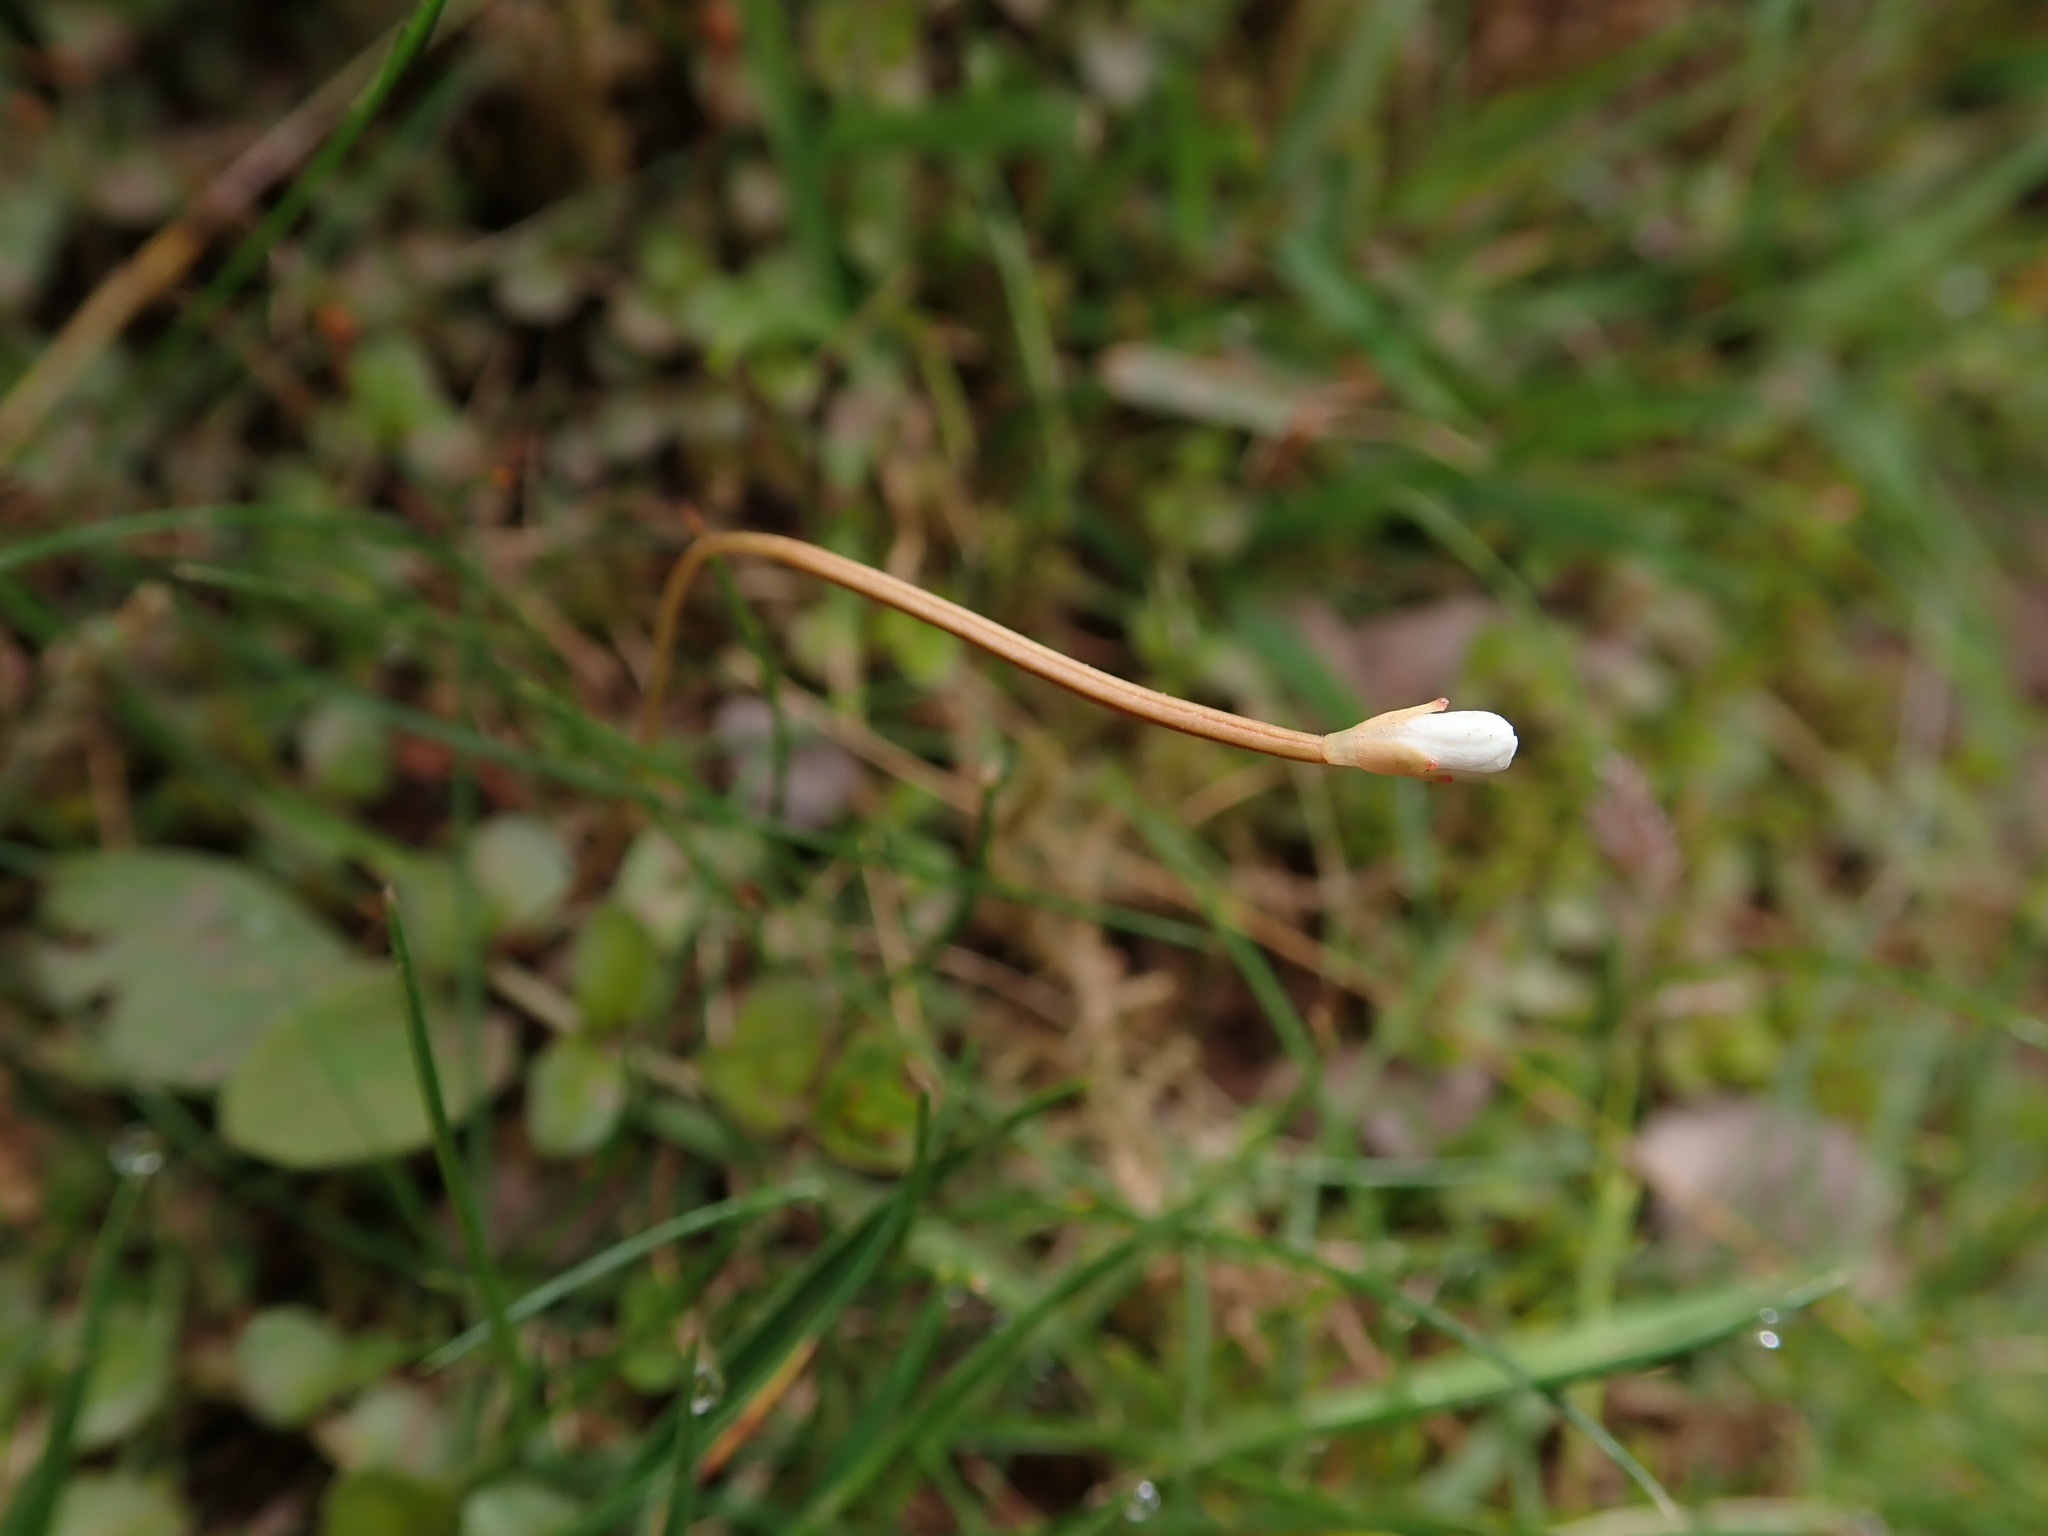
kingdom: Plantae
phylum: Tracheophyta
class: Magnoliopsida
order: Myrtales
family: Onagraceae
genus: Epilobium
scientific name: Epilobium brunnescens
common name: New zealand willowherb
